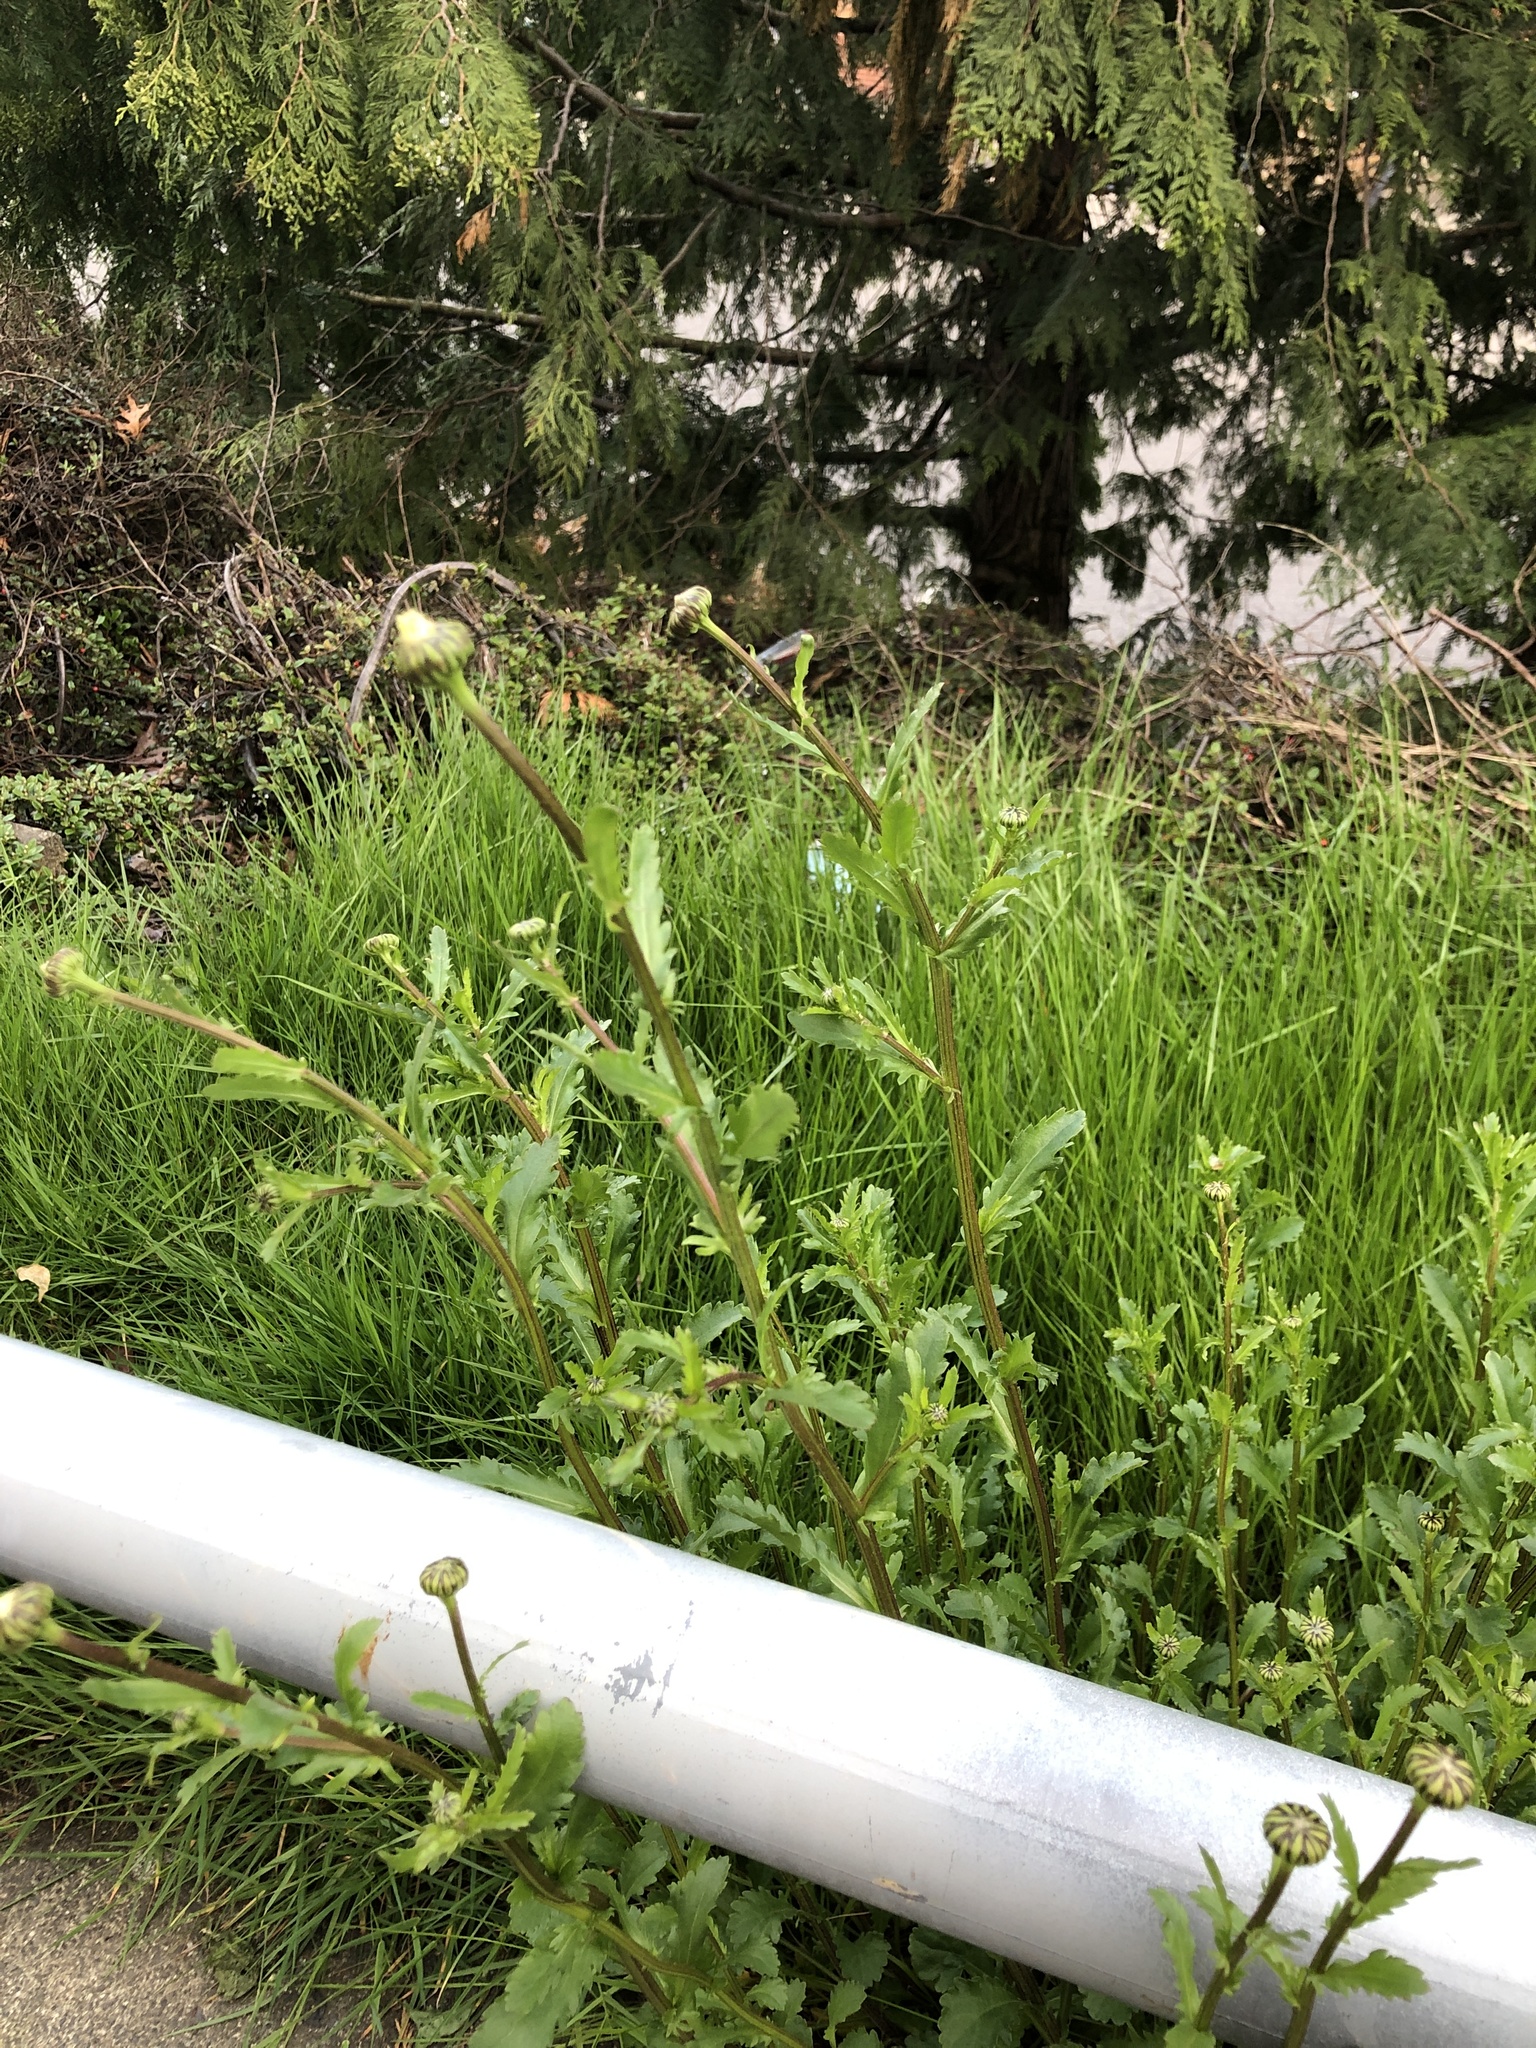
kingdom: Plantae
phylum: Tracheophyta
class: Magnoliopsida
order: Asterales
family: Asteraceae
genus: Leucanthemum
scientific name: Leucanthemum vulgare
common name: Oxeye daisy
